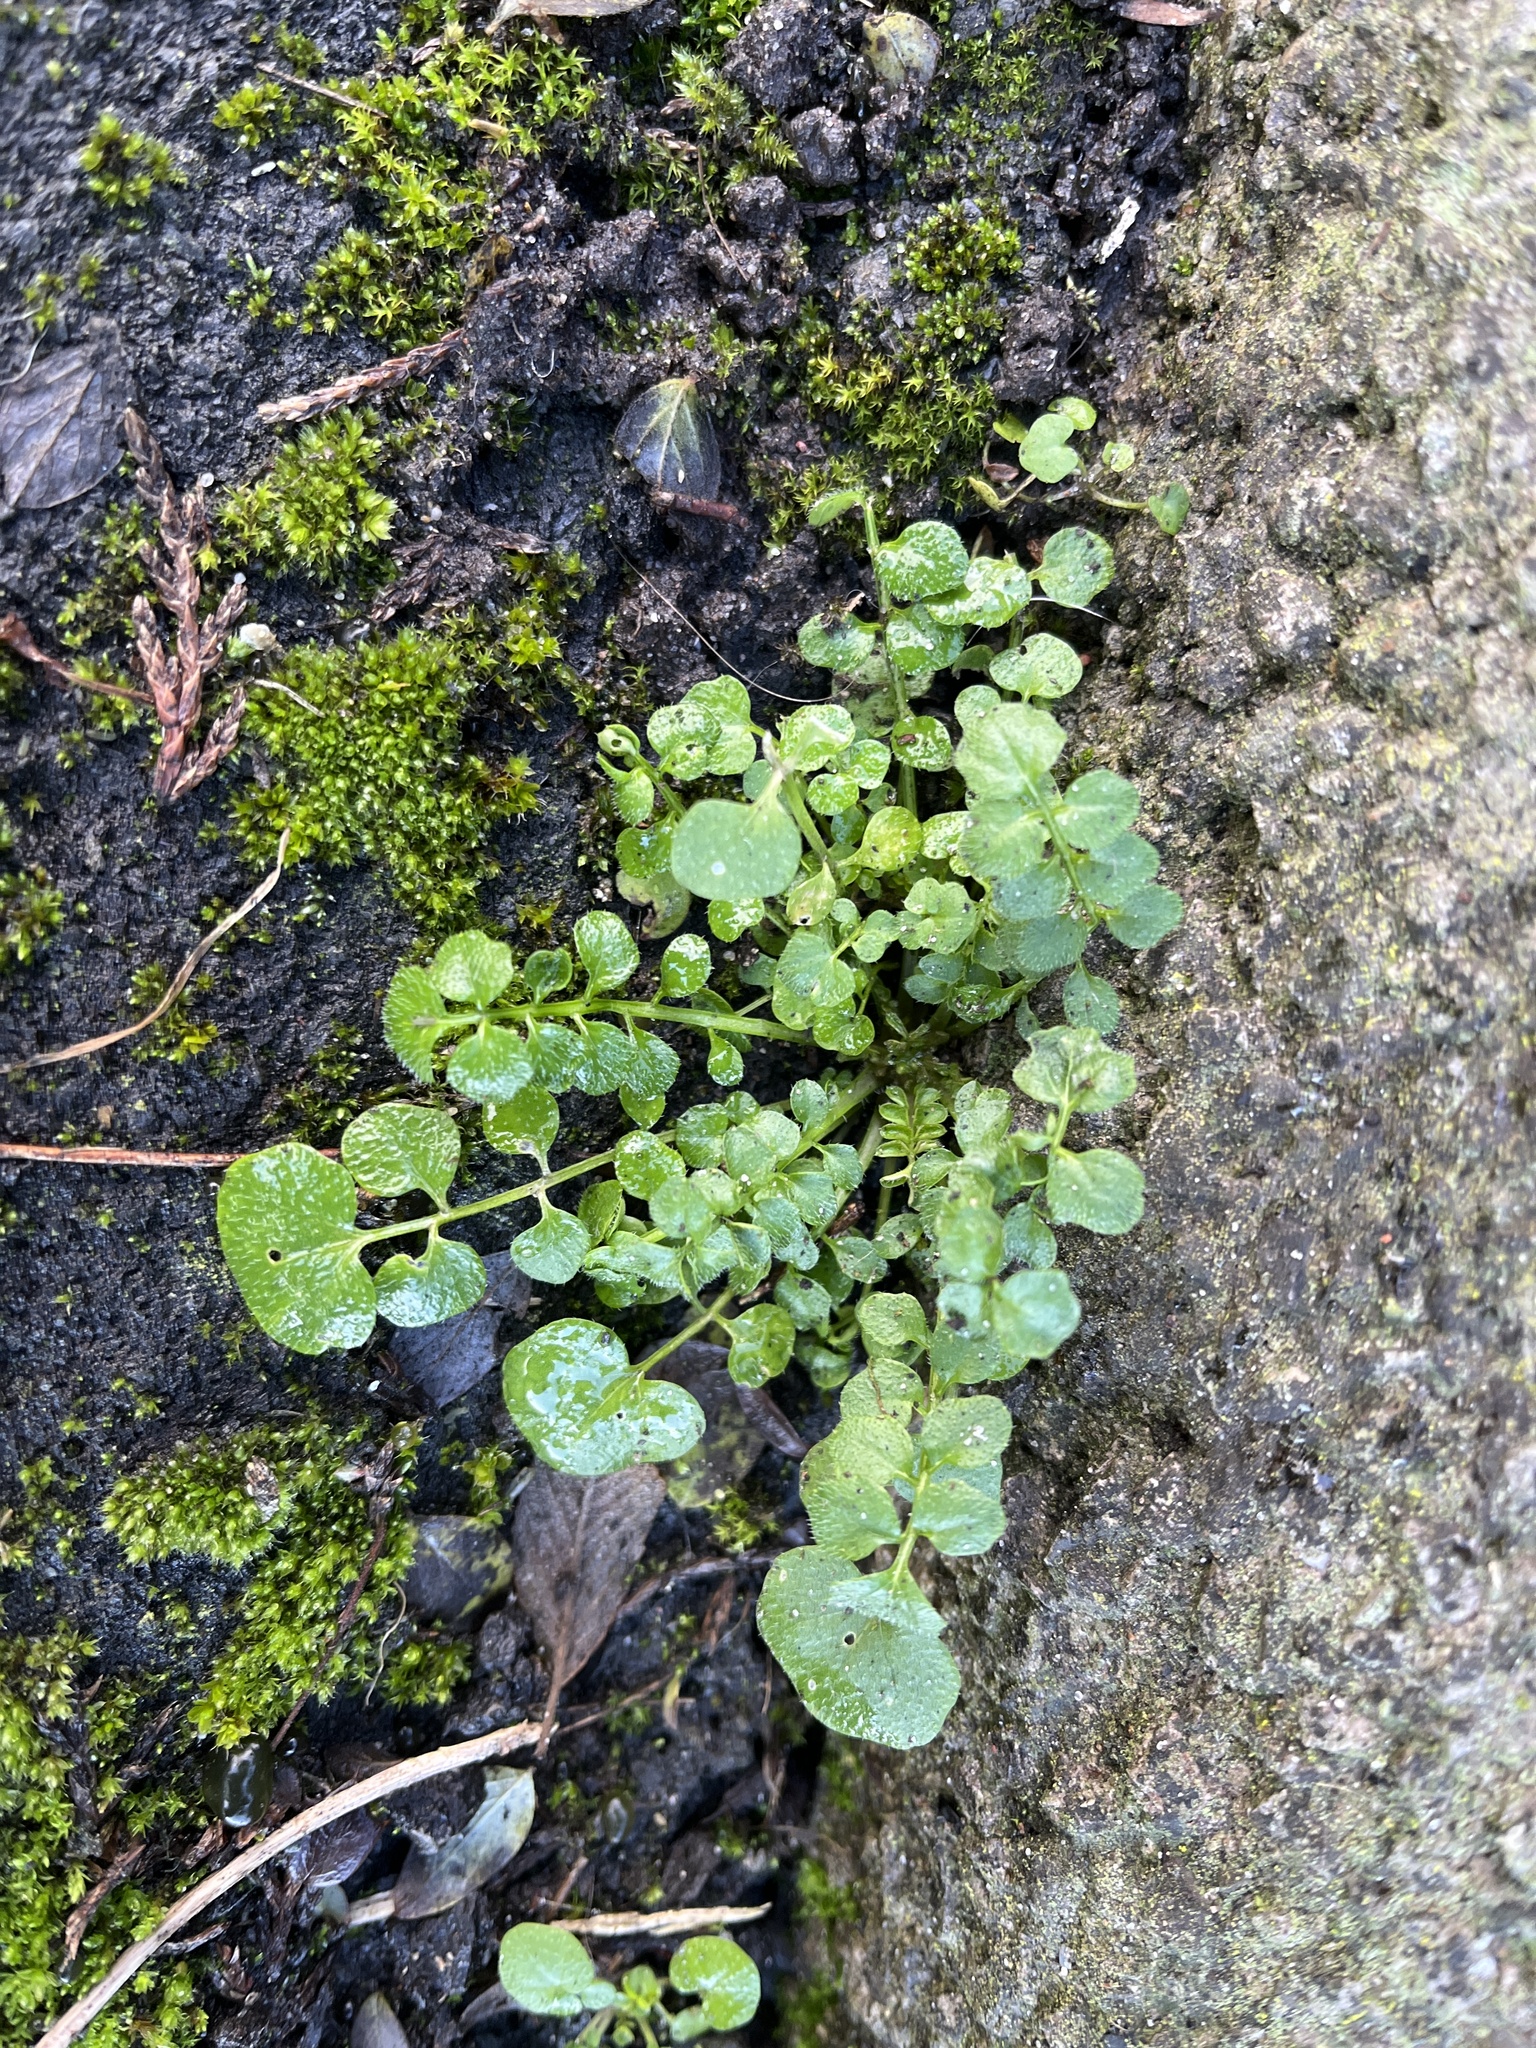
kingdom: Plantae
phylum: Tracheophyta
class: Magnoliopsida
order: Brassicales
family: Brassicaceae
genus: Cardamine
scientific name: Cardamine hirsuta
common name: Hairy bittercress
